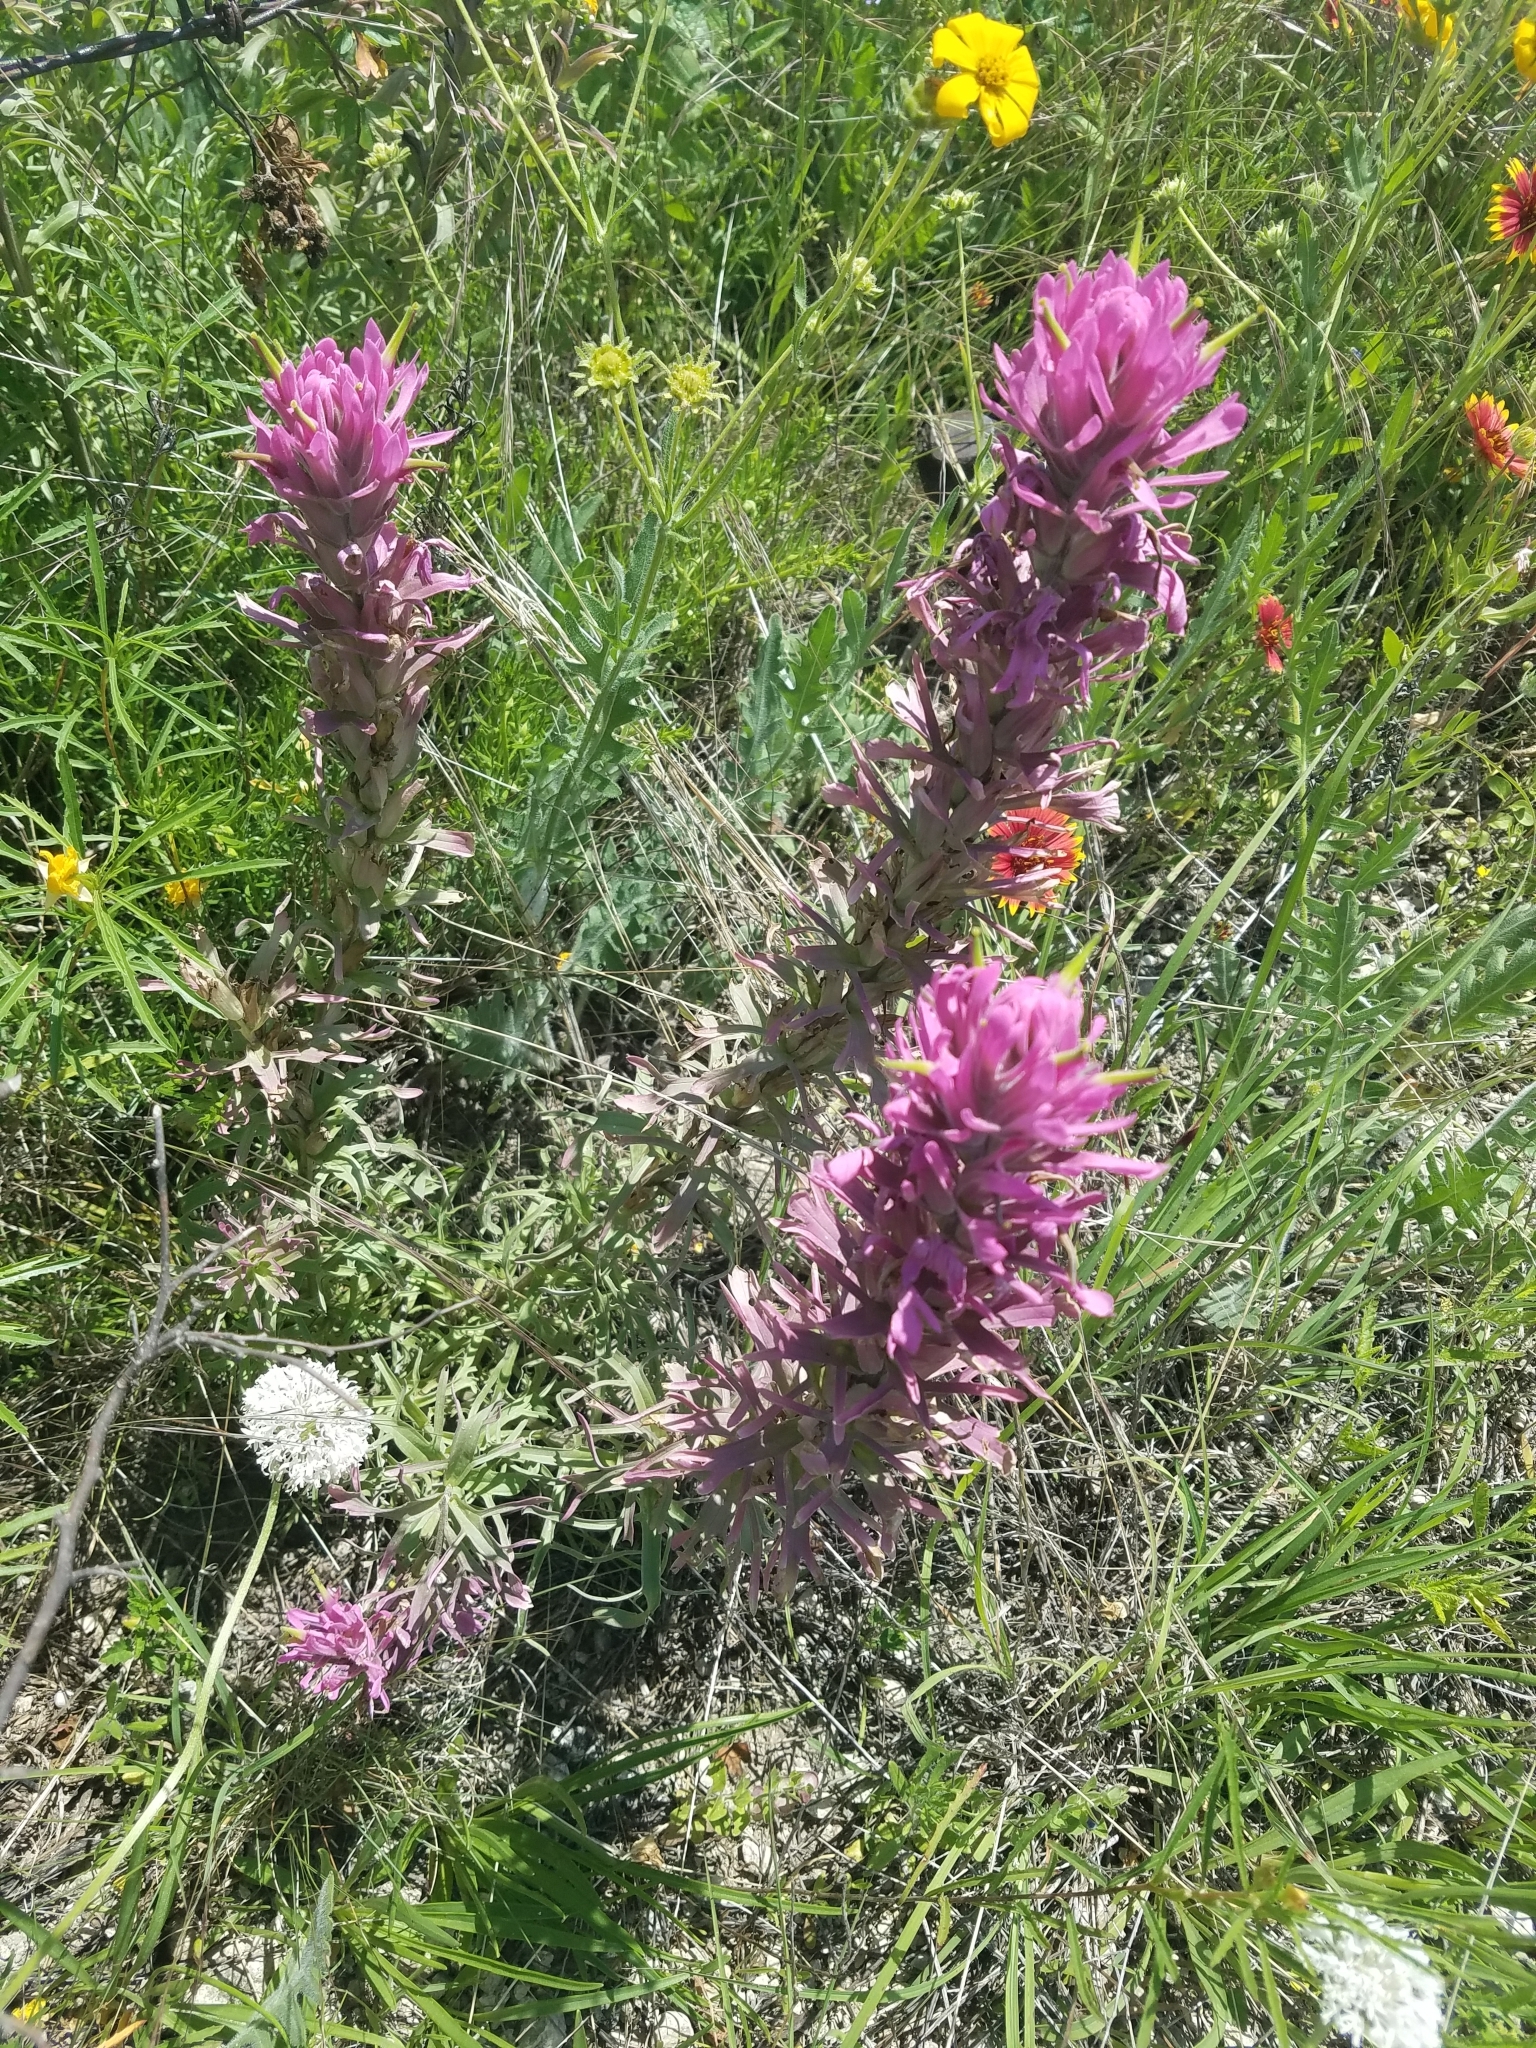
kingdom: Plantae
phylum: Tracheophyta
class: Magnoliopsida
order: Lamiales
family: Orobanchaceae
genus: Castilleja
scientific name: Castilleja purpurea
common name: Plains paintbrush
